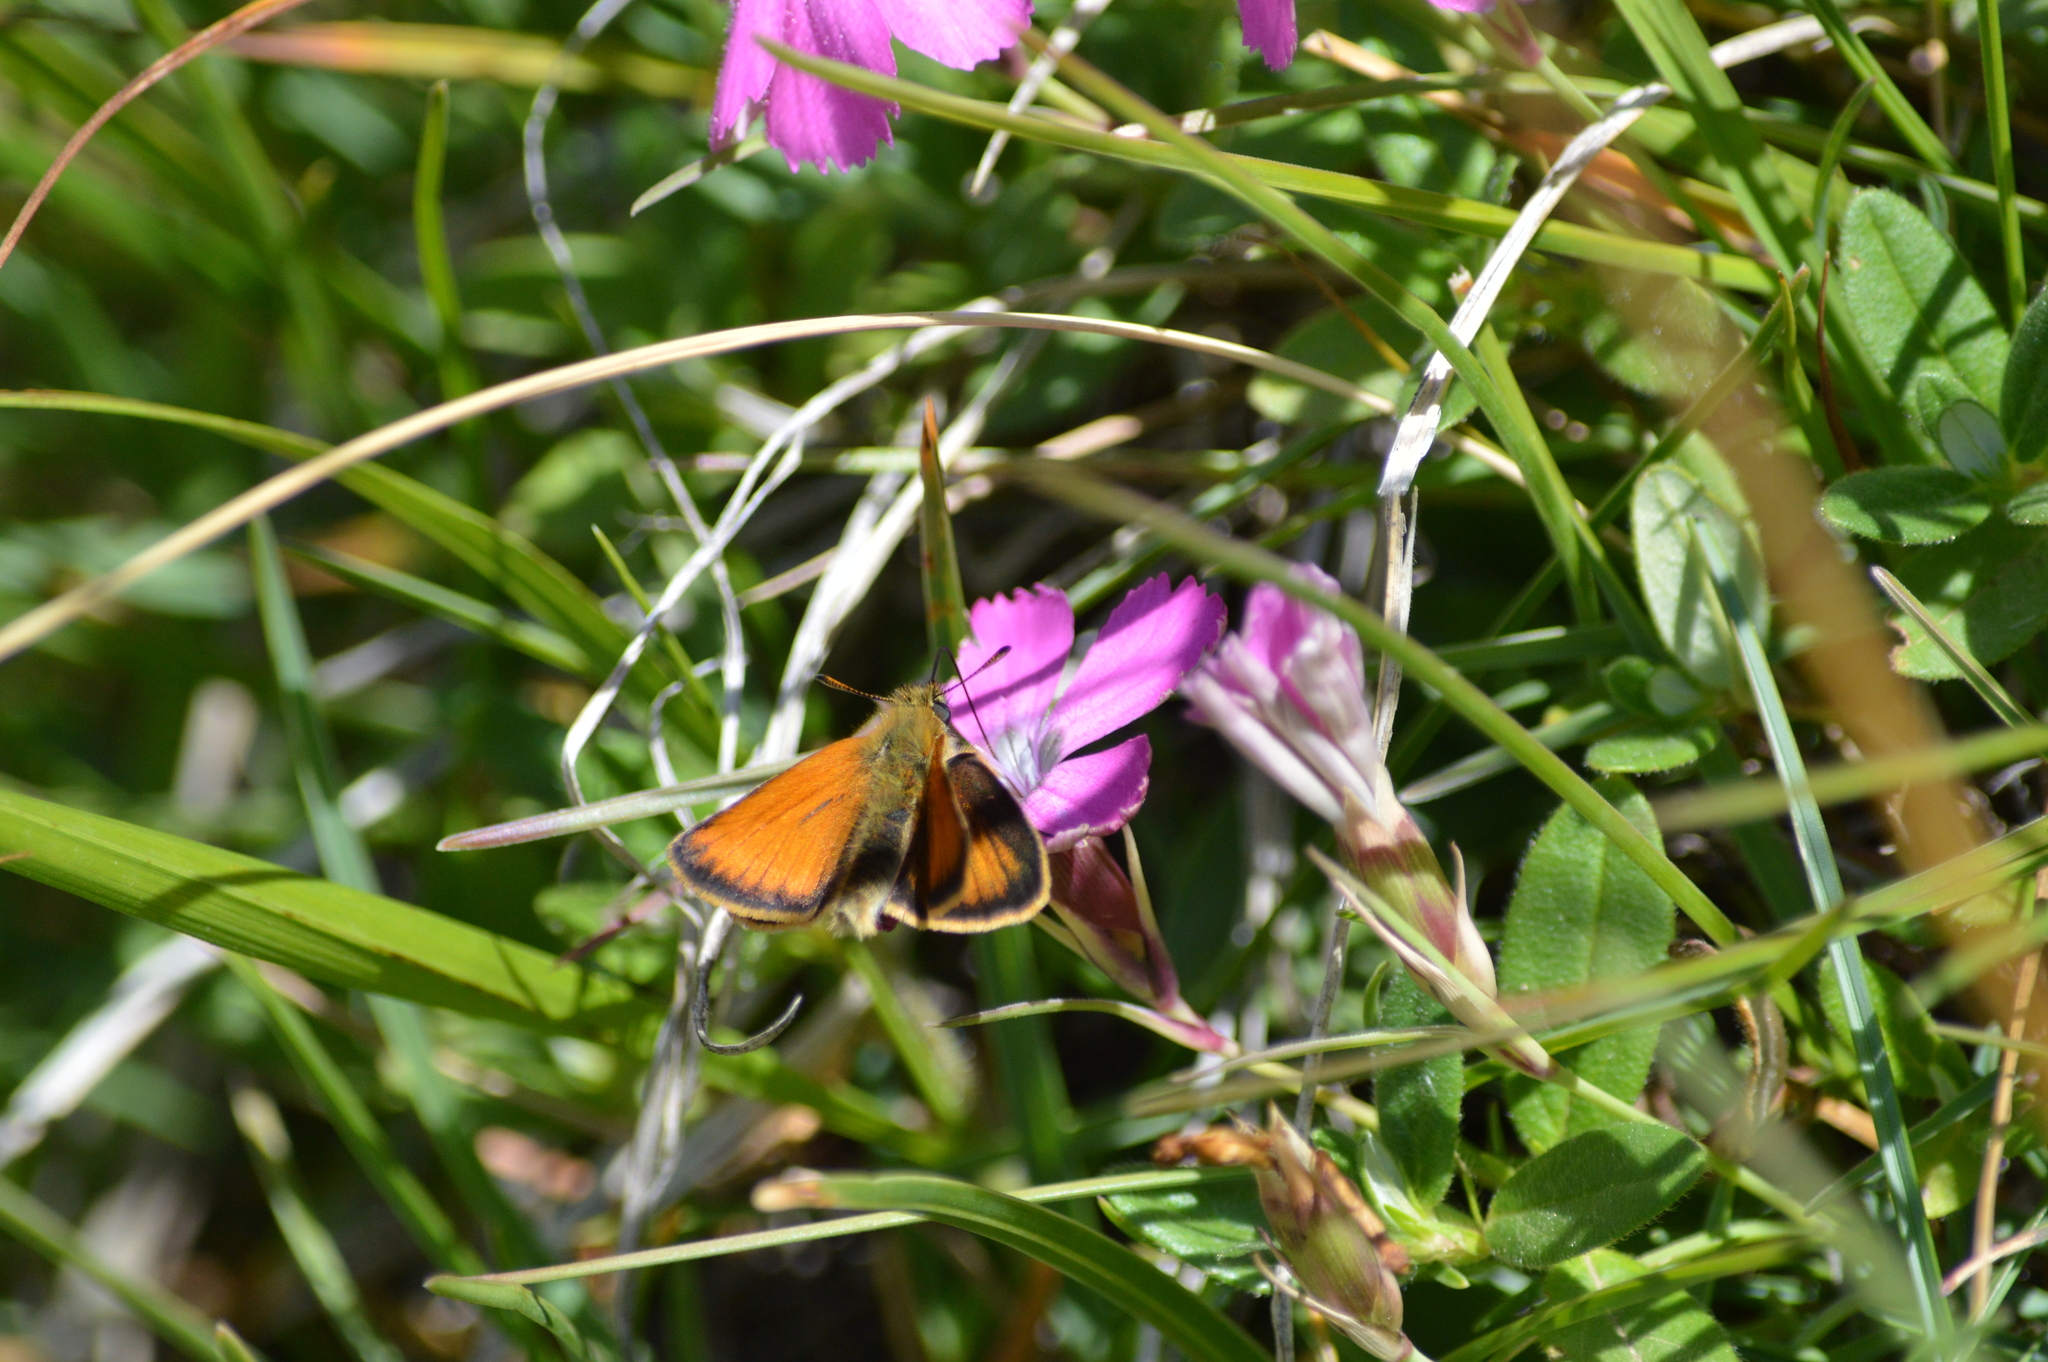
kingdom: Animalia
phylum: Arthropoda
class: Insecta
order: Lepidoptera
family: Hesperiidae
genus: Thymelicus
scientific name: Thymelicus lineola
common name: Essex skipper
